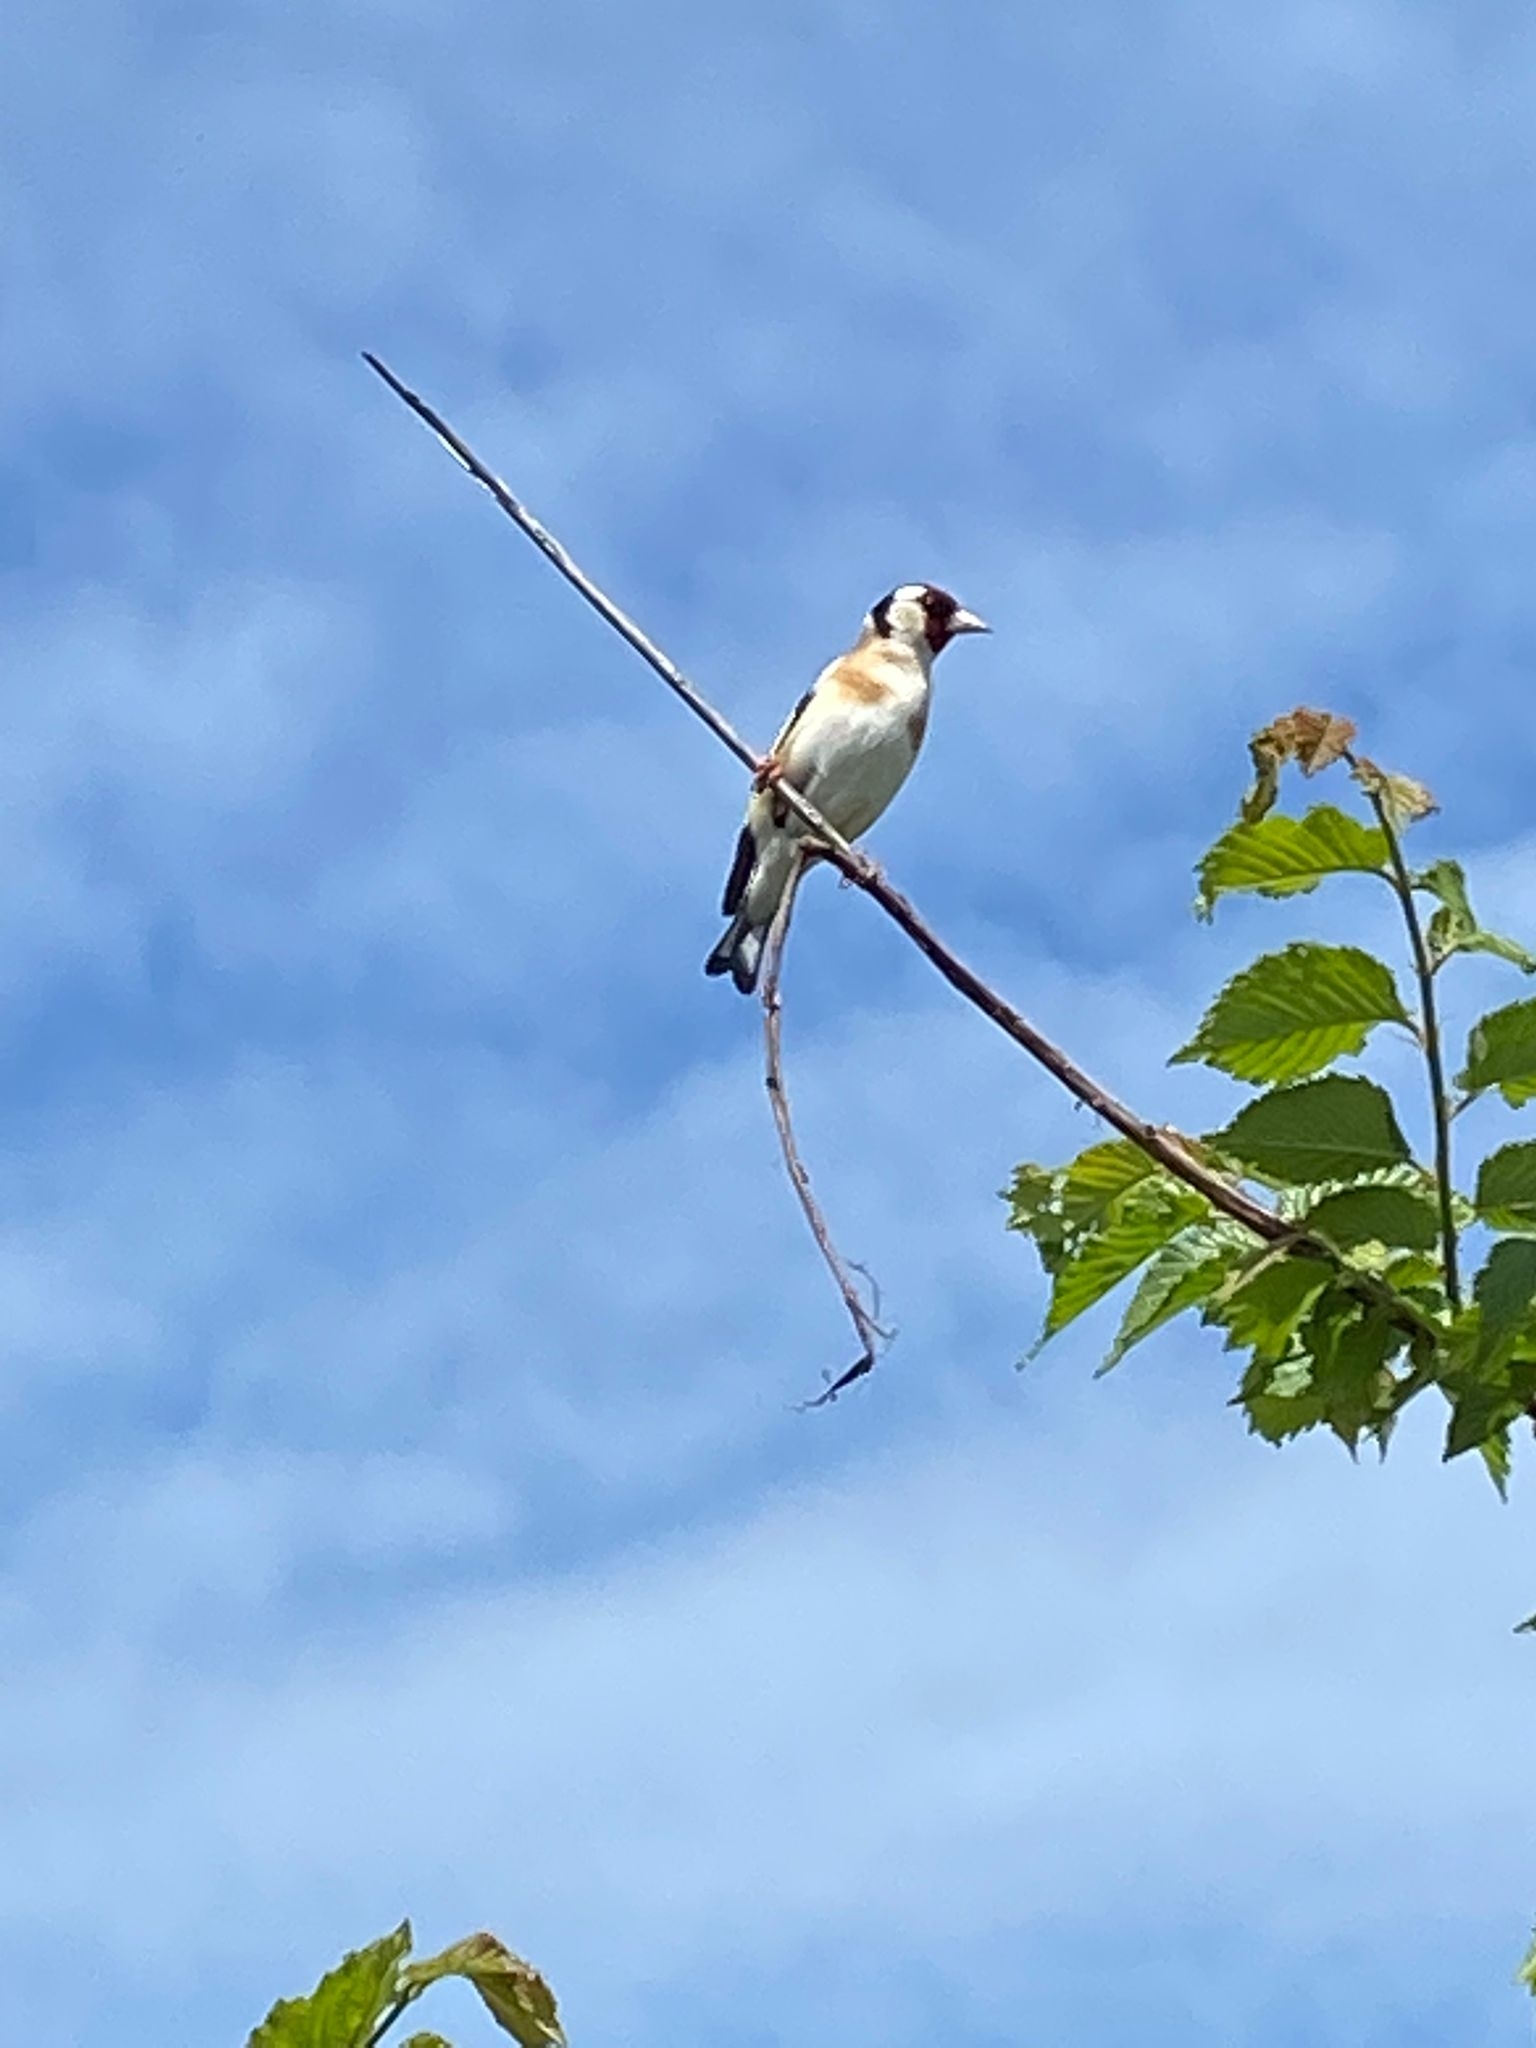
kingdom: Animalia
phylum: Chordata
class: Aves
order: Passeriformes
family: Fringillidae
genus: Carduelis
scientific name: Carduelis carduelis
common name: European goldfinch
